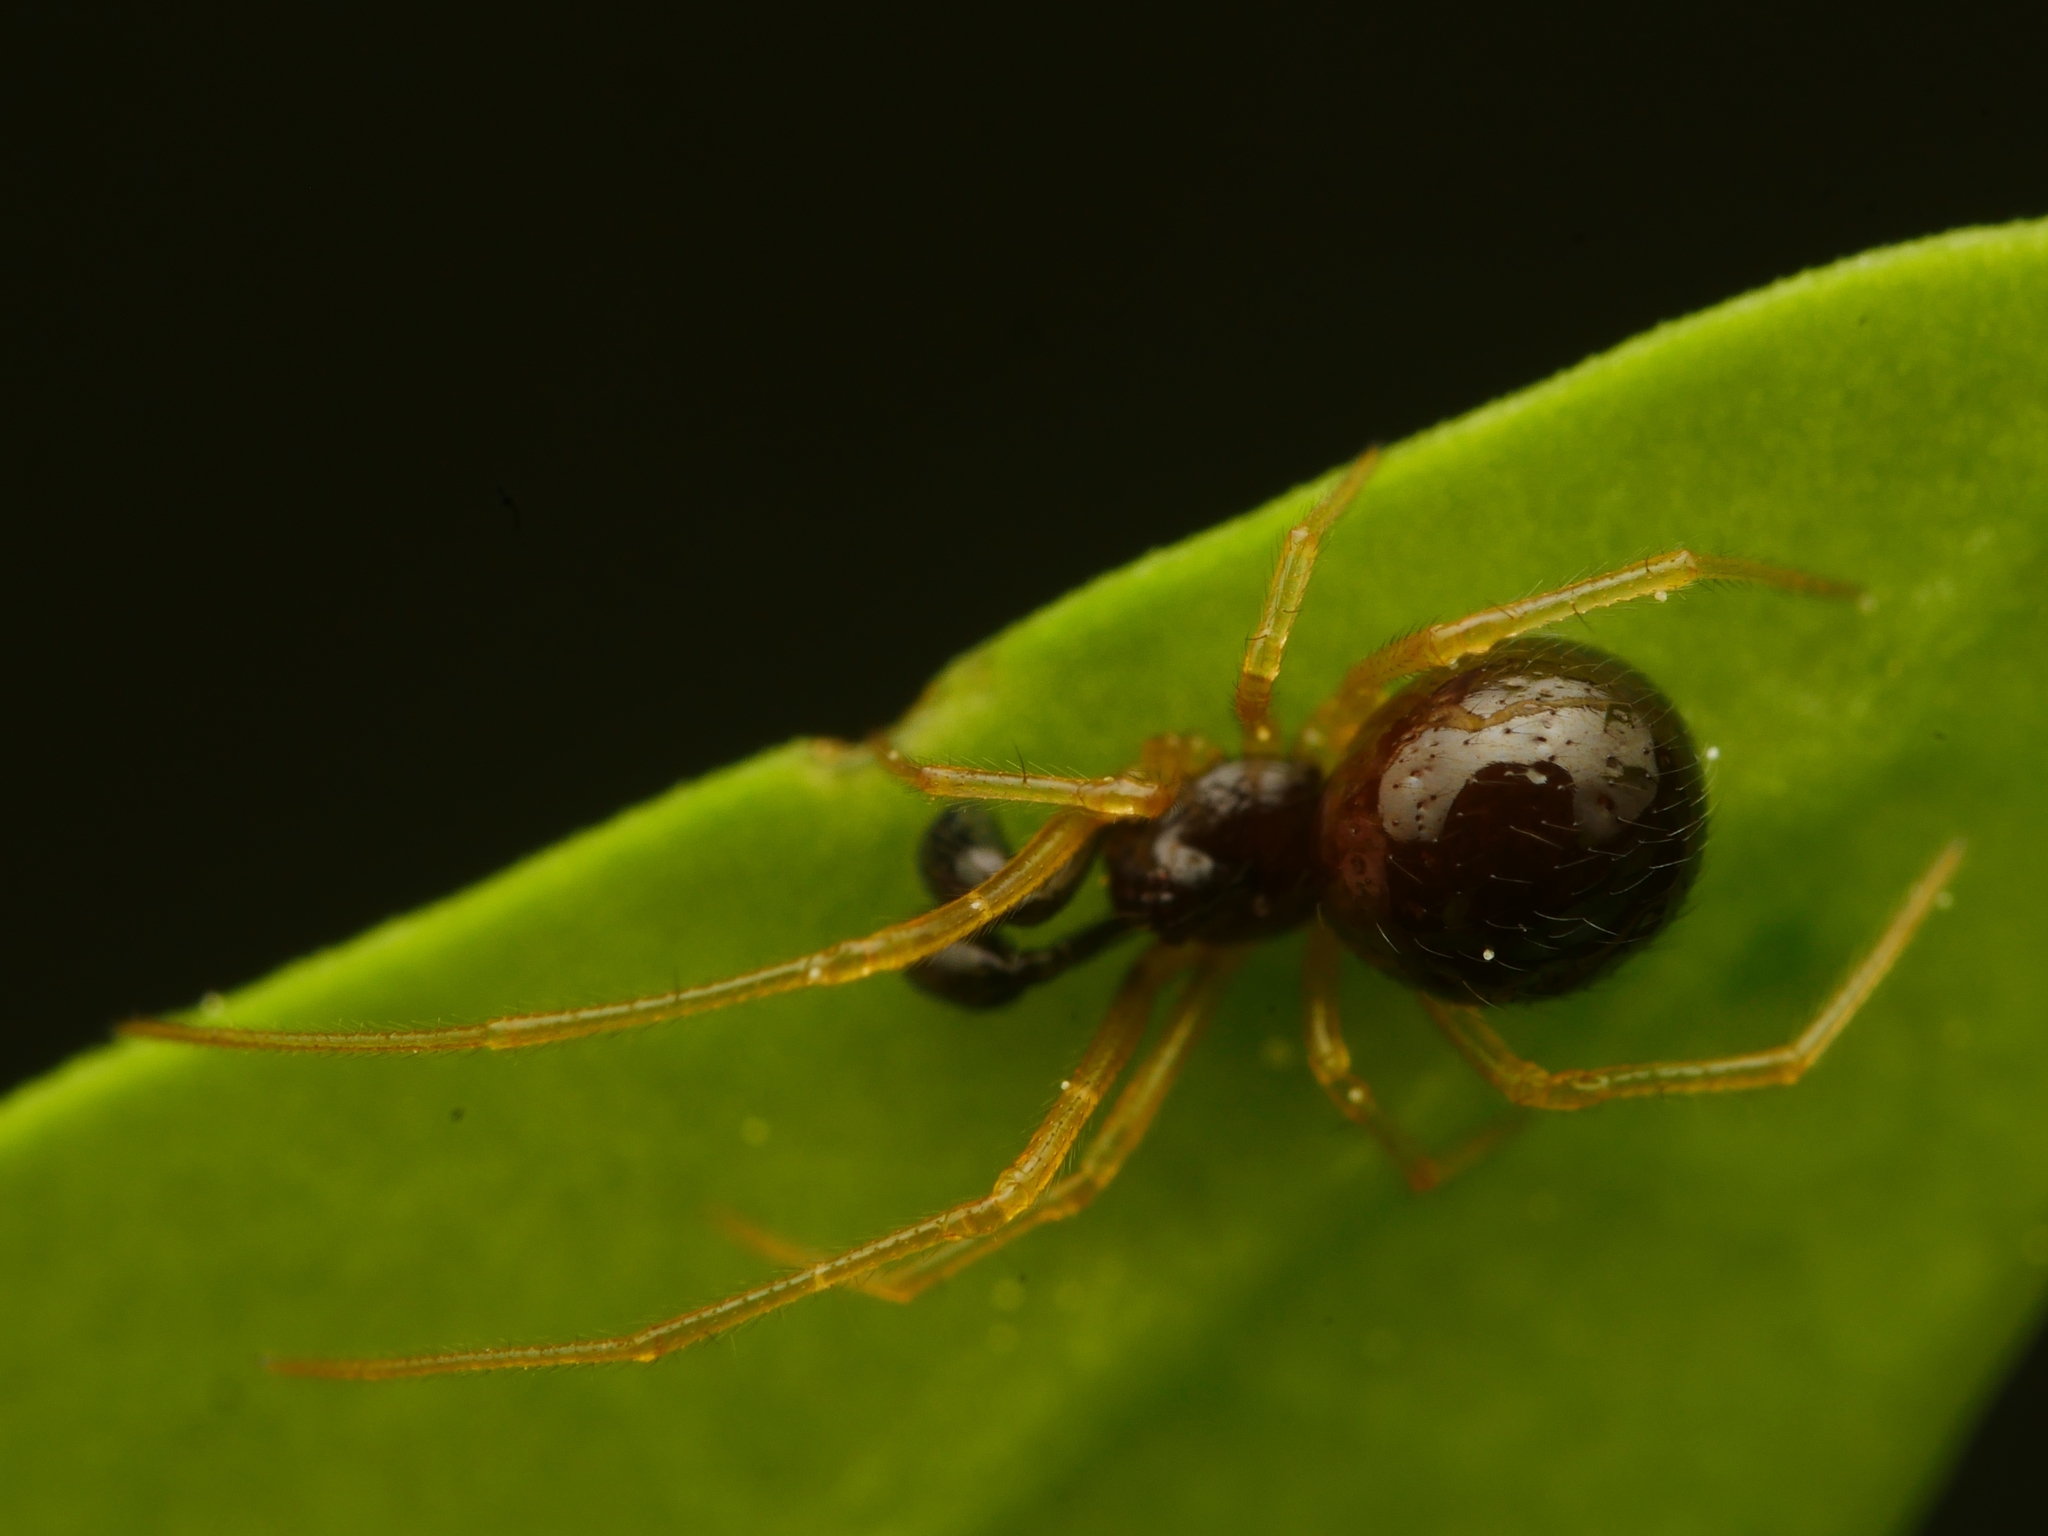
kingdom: Animalia
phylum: Arthropoda
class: Arachnida
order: Araneae
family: Theridiidae
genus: Neottiura
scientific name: Neottiura bimaculata
